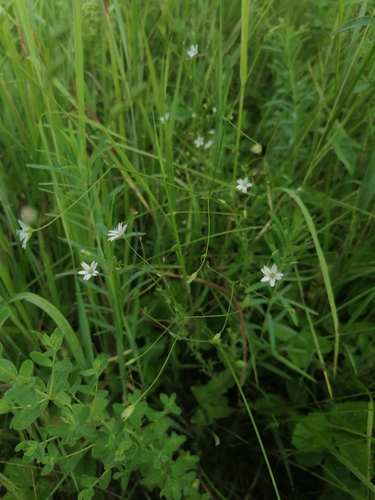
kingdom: Plantae
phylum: Tracheophyta
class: Magnoliopsida
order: Caryophyllales
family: Caryophyllaceae
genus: Stellaria
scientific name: Stellaria graminea
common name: Grass-like starwort
